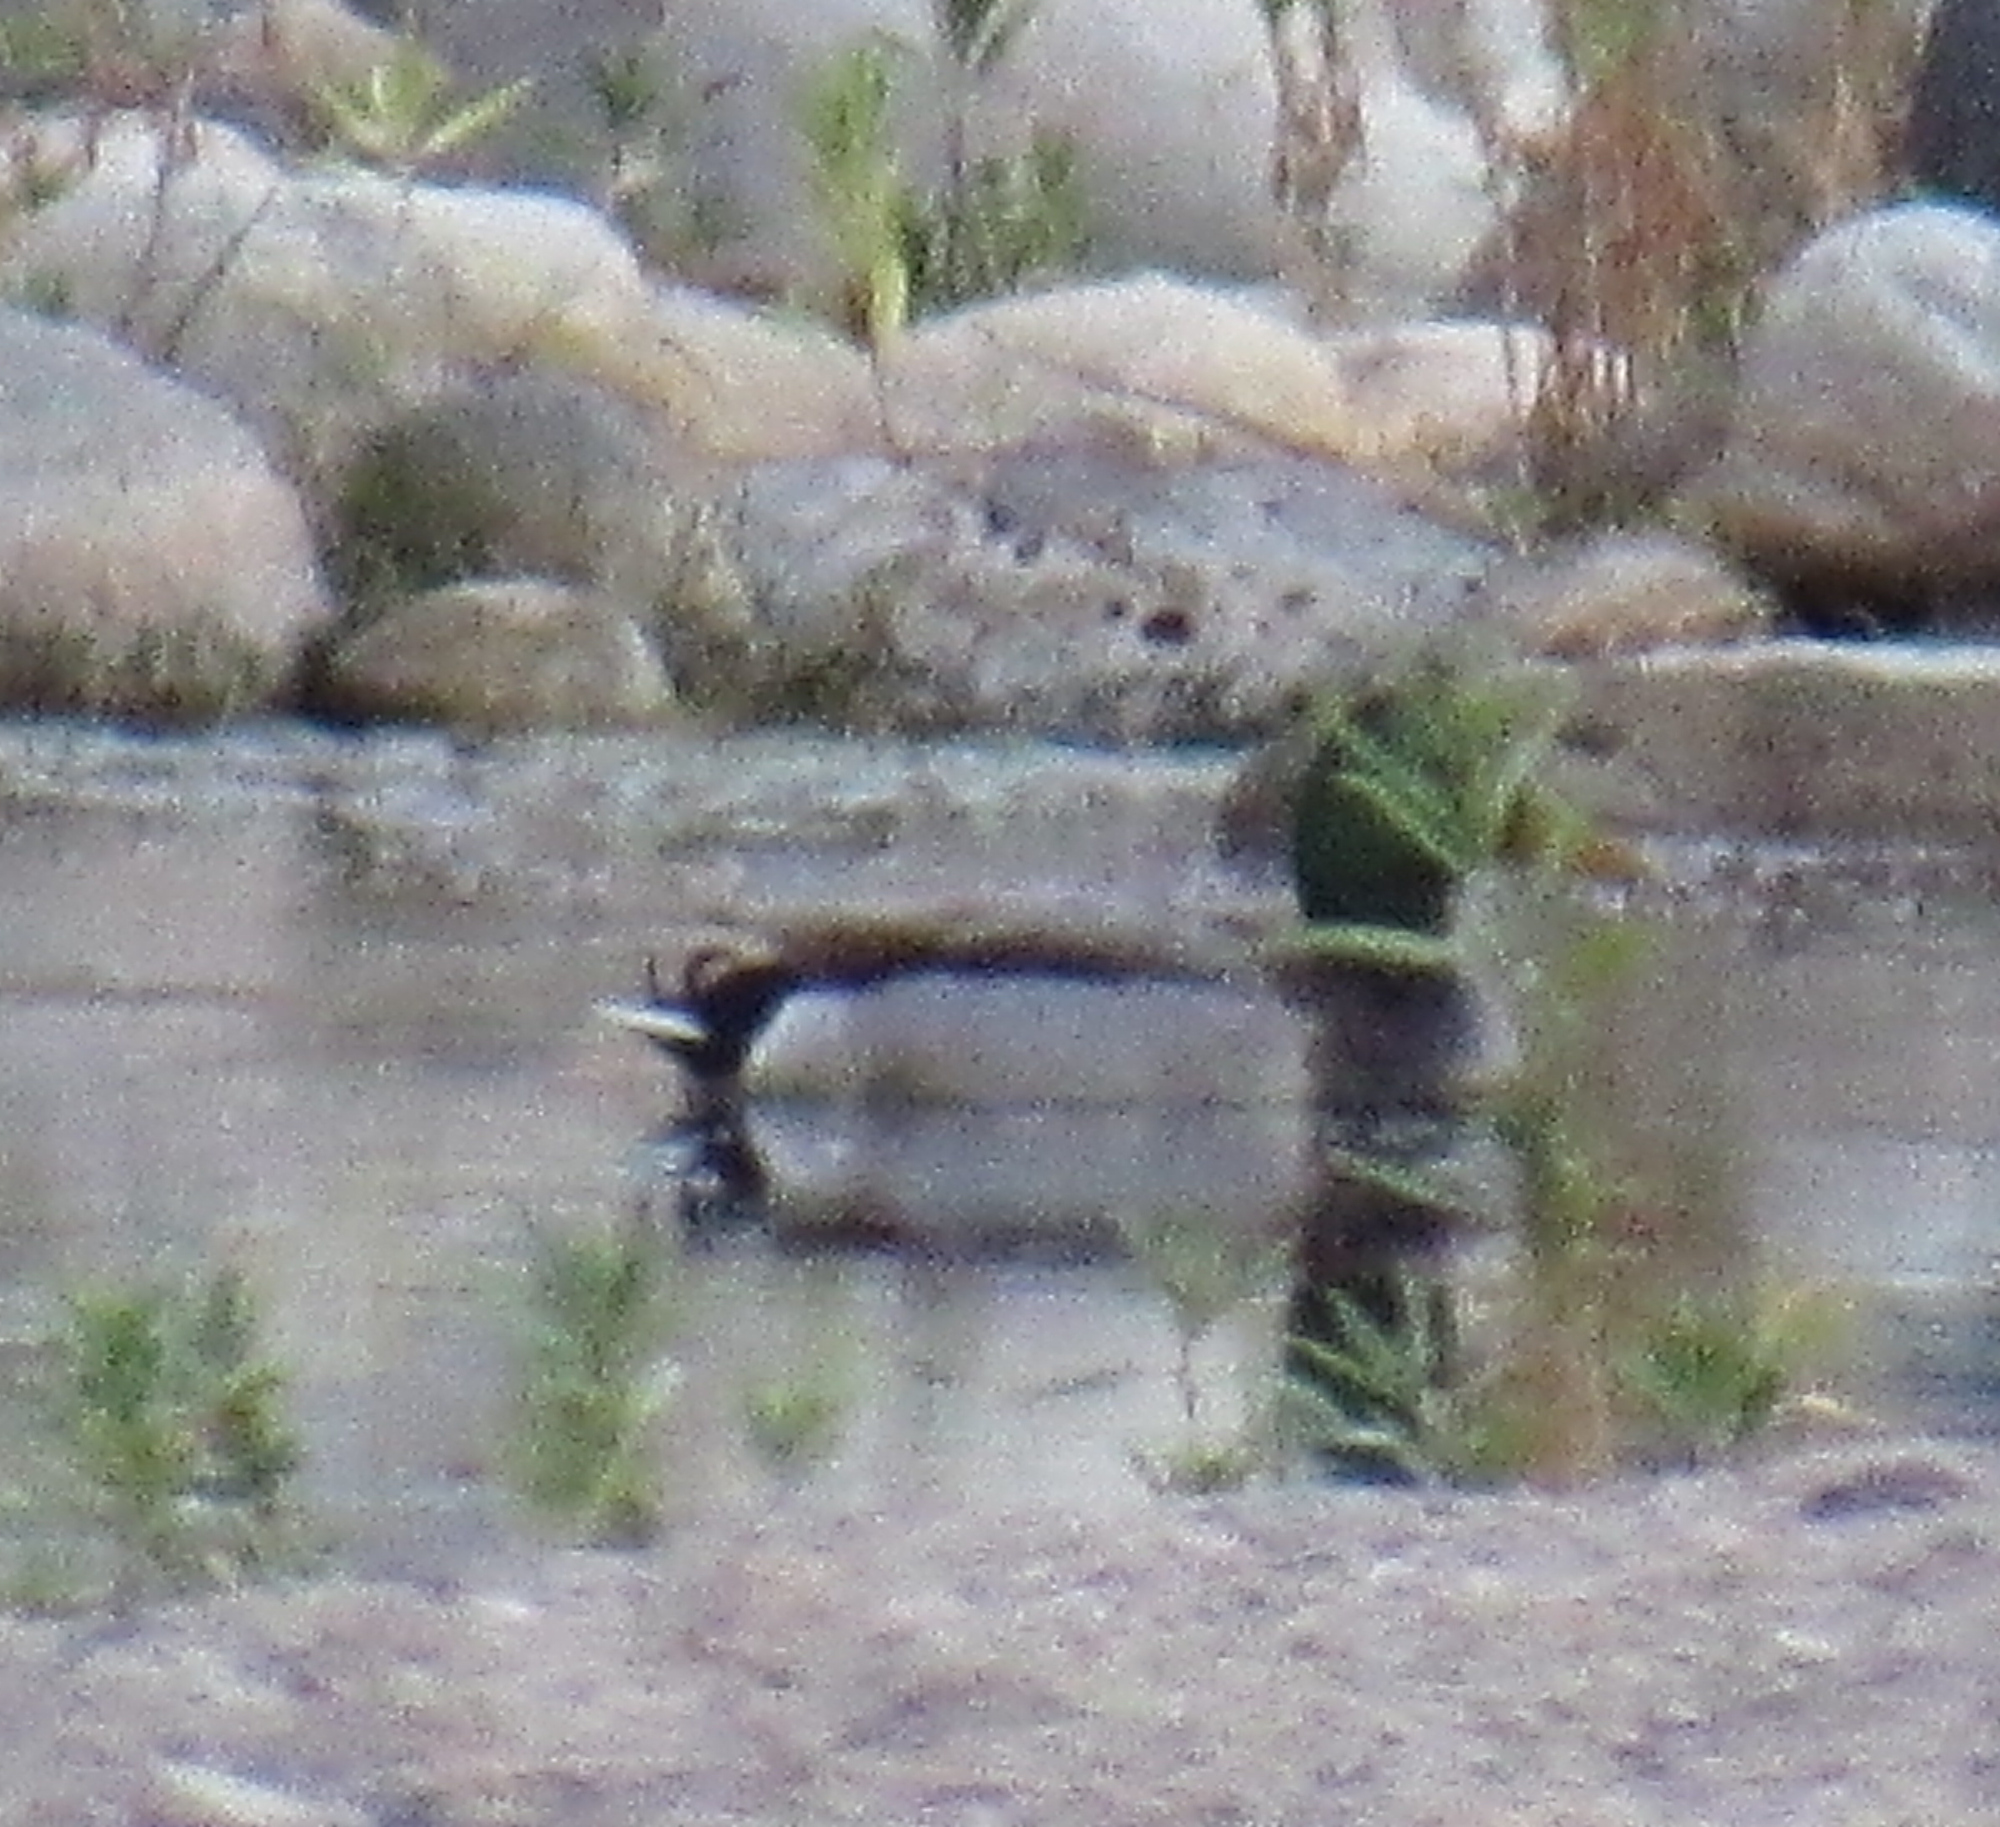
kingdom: Animalia
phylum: Chordata
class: Aves
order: Anseriformes
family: Anatidae
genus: Anas
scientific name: Anas platyrhynchos
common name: Mallard
